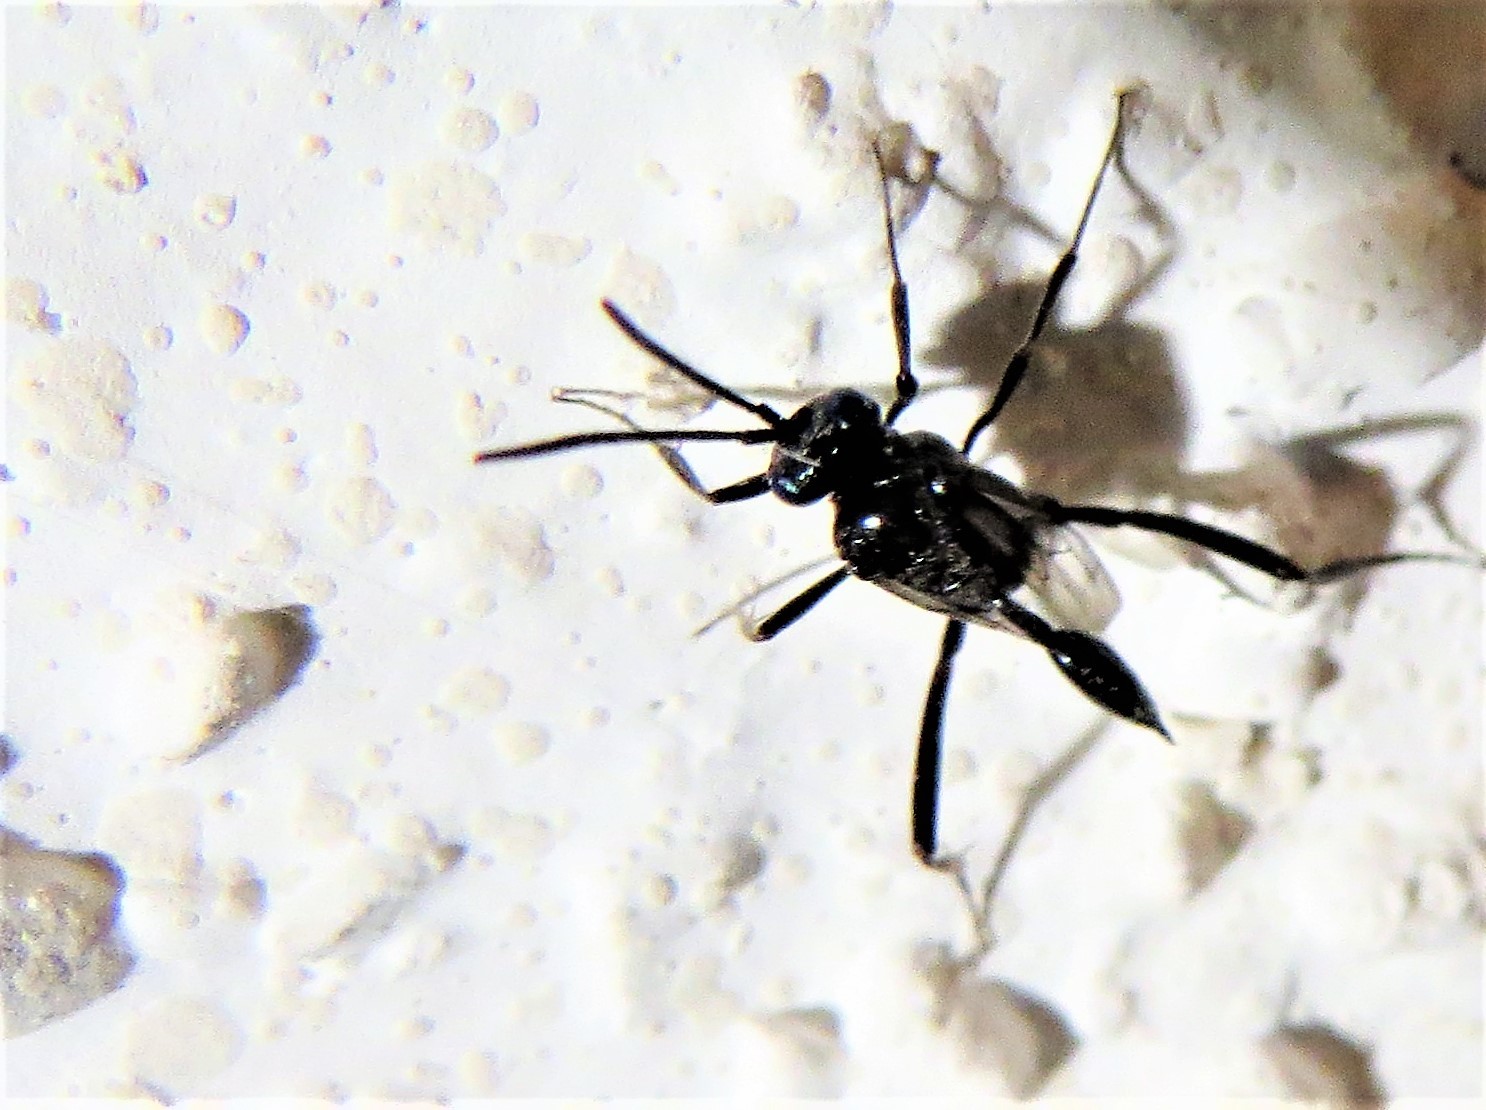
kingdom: Animalia
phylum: Arthropoda
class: Insecta
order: Hymenoptera
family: Evaniidae
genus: Evania
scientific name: Evania appendigaster
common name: Ensign wasp
